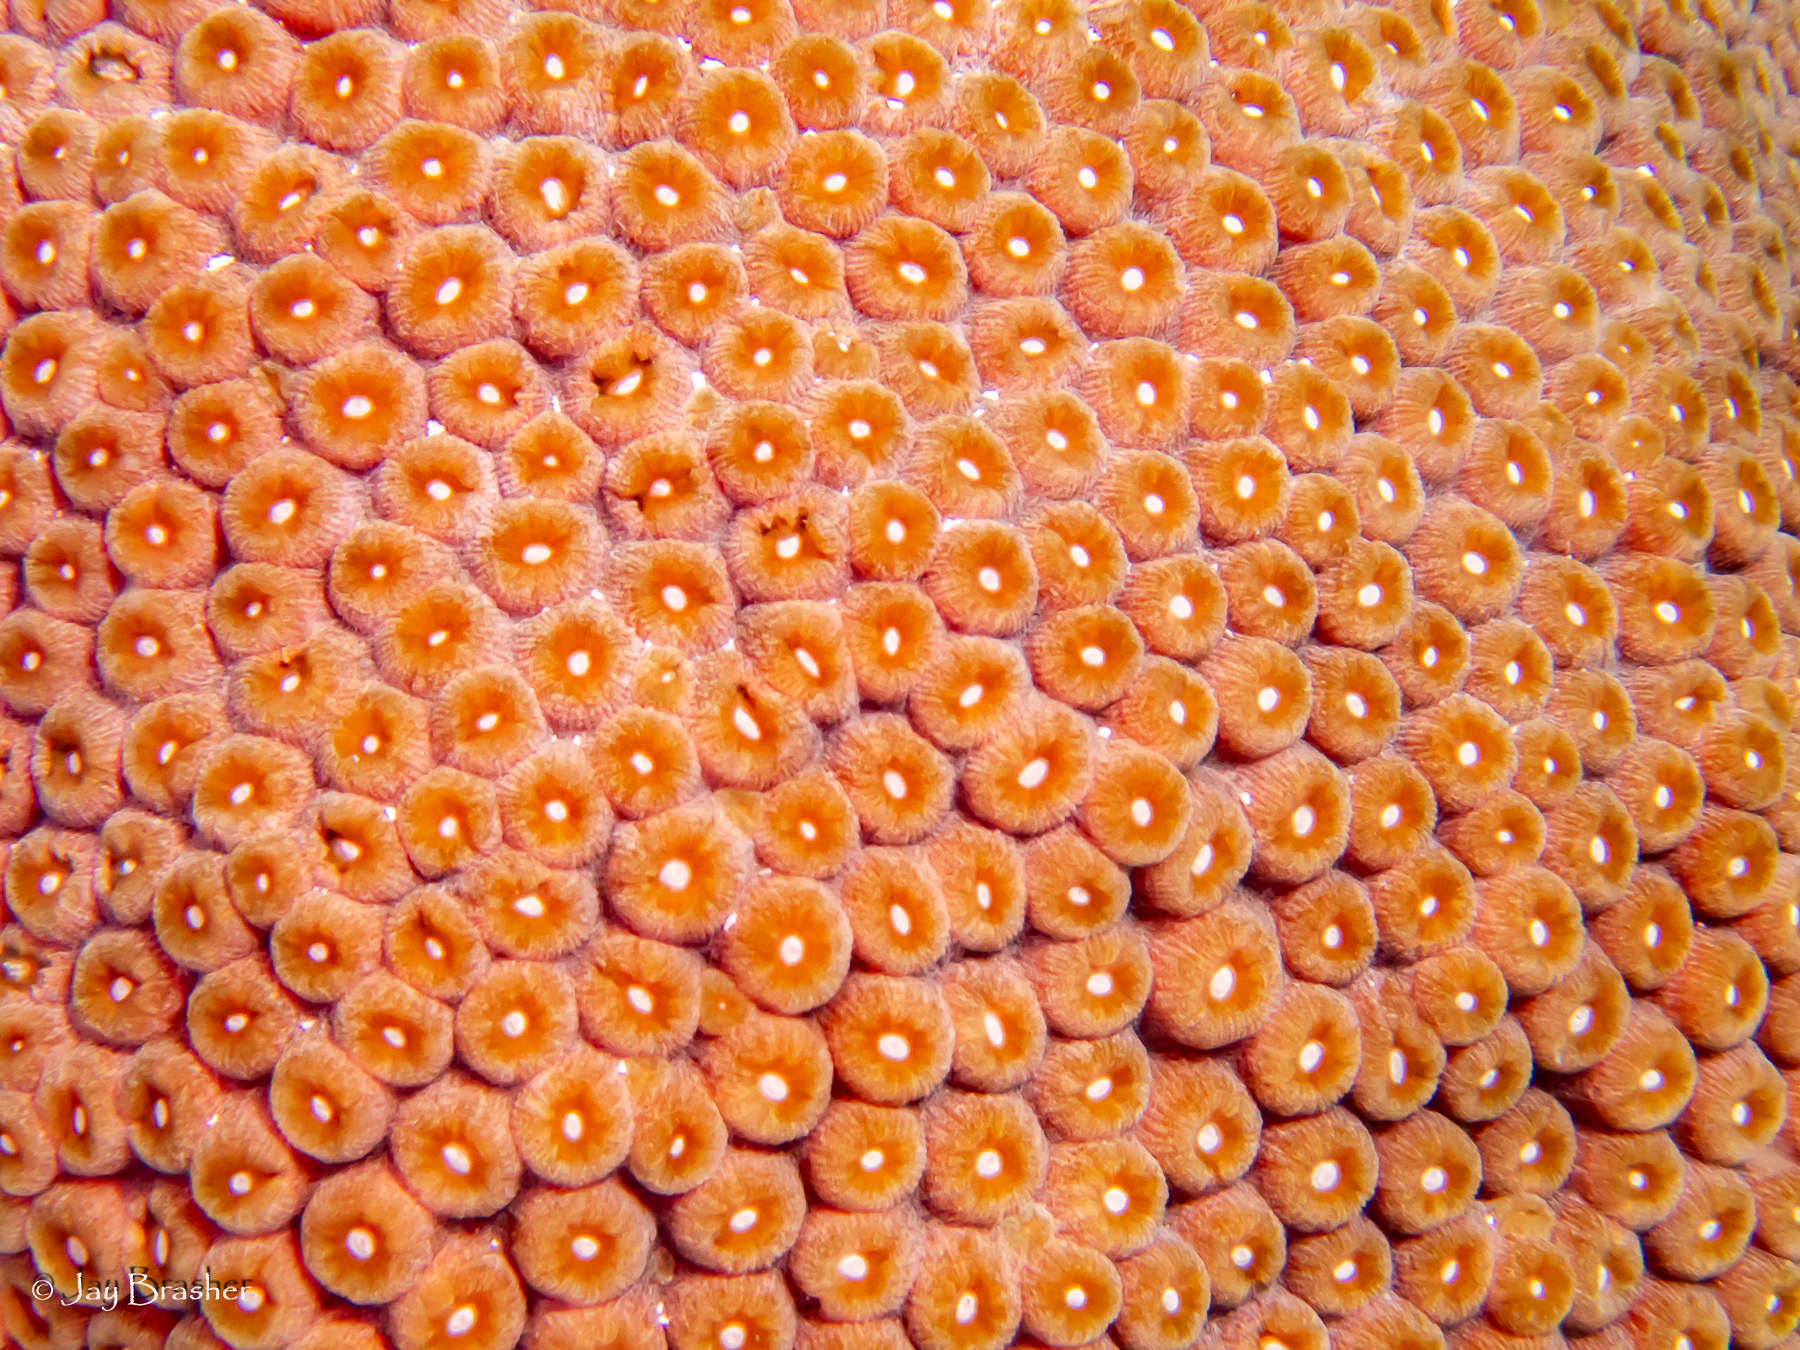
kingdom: Animalia
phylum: Cnidaria
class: Anthozoa
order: Scleractinia
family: Montastraeidae
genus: Montastraea
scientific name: Montastraea cavernosa
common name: Great star coral
